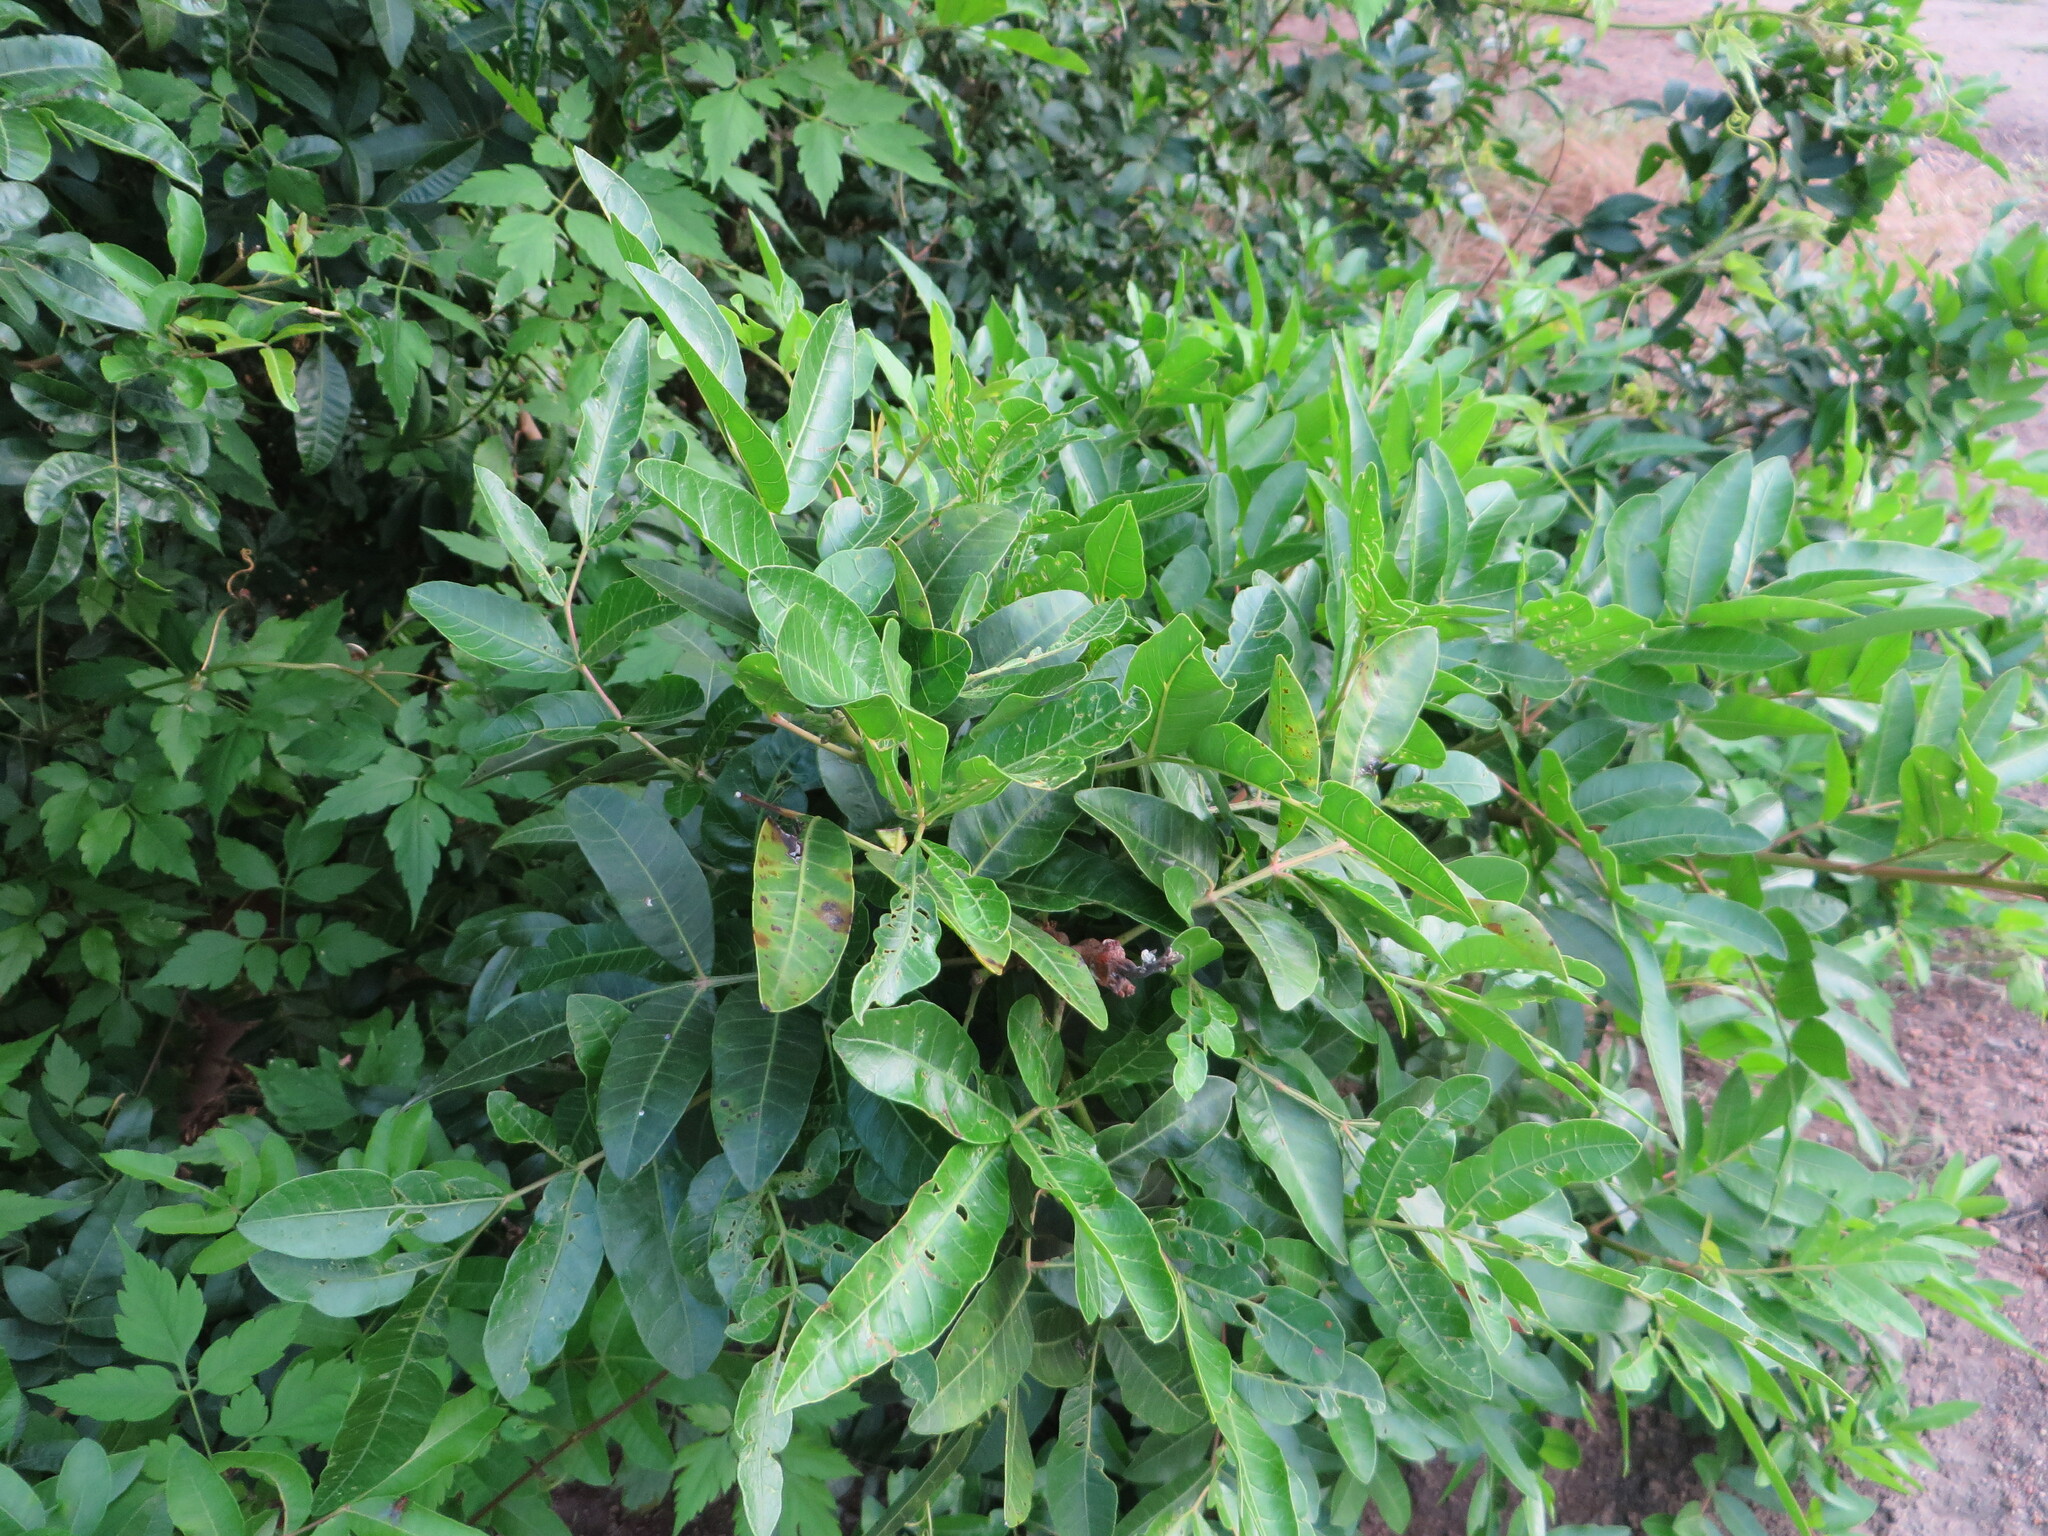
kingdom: Plantae
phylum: Tracheophyta
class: Magnoliopsida
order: Sapindales
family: Anacardiaceae
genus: Schinus
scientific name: Schinus terebinthifolia
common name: Brazilian peppertree
